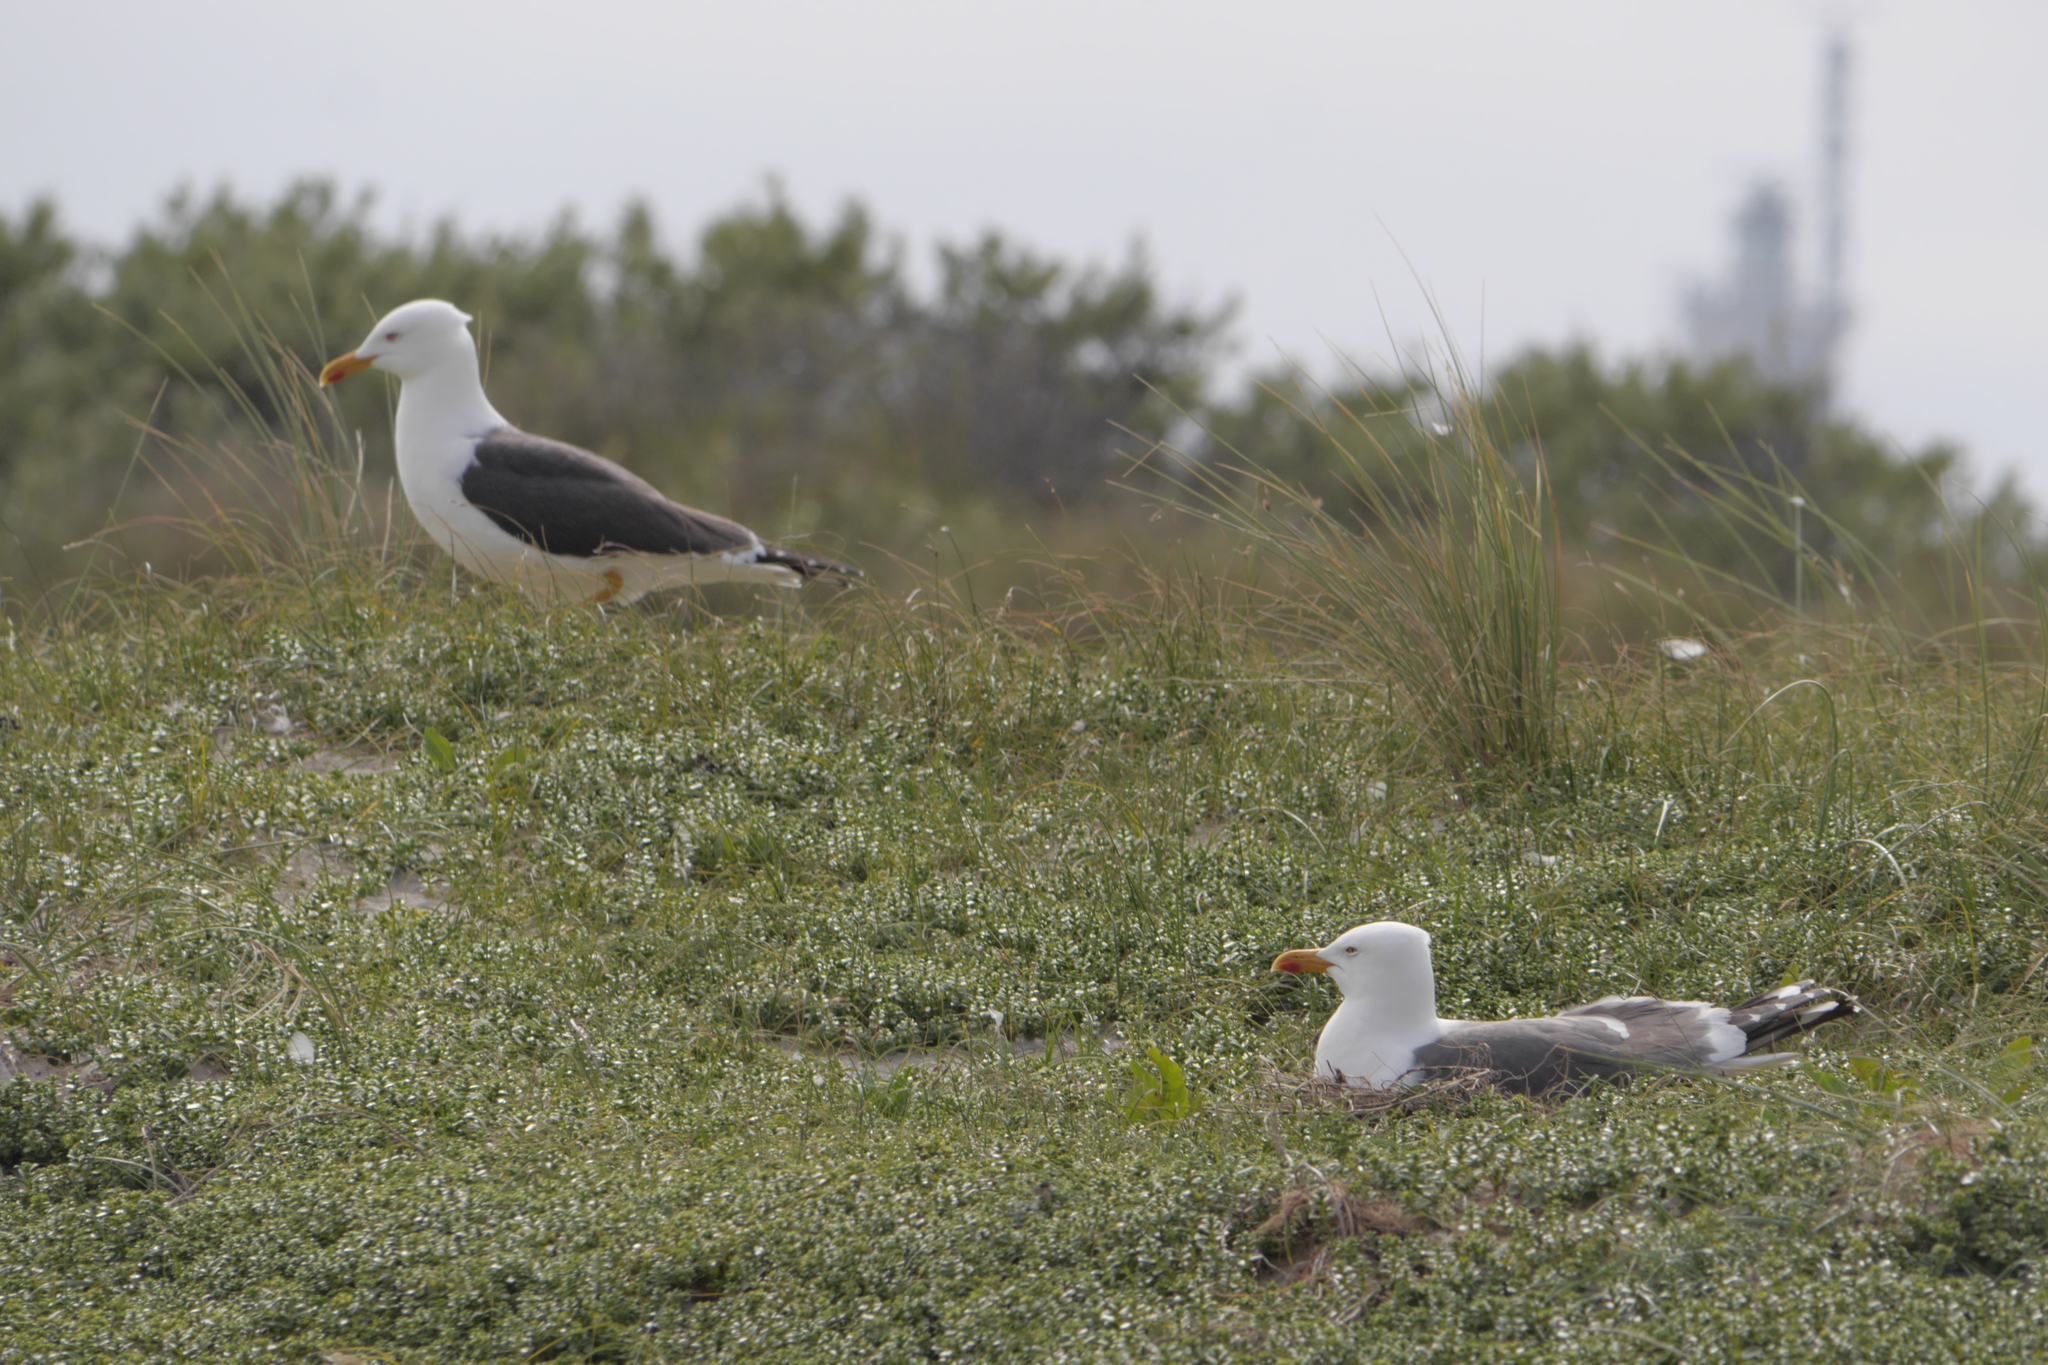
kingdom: Animalia
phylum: Chordata
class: Aves
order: Charadriiformes
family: Laridae
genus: Larus
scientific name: Larus fuscus
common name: Lesser black-backed gull
